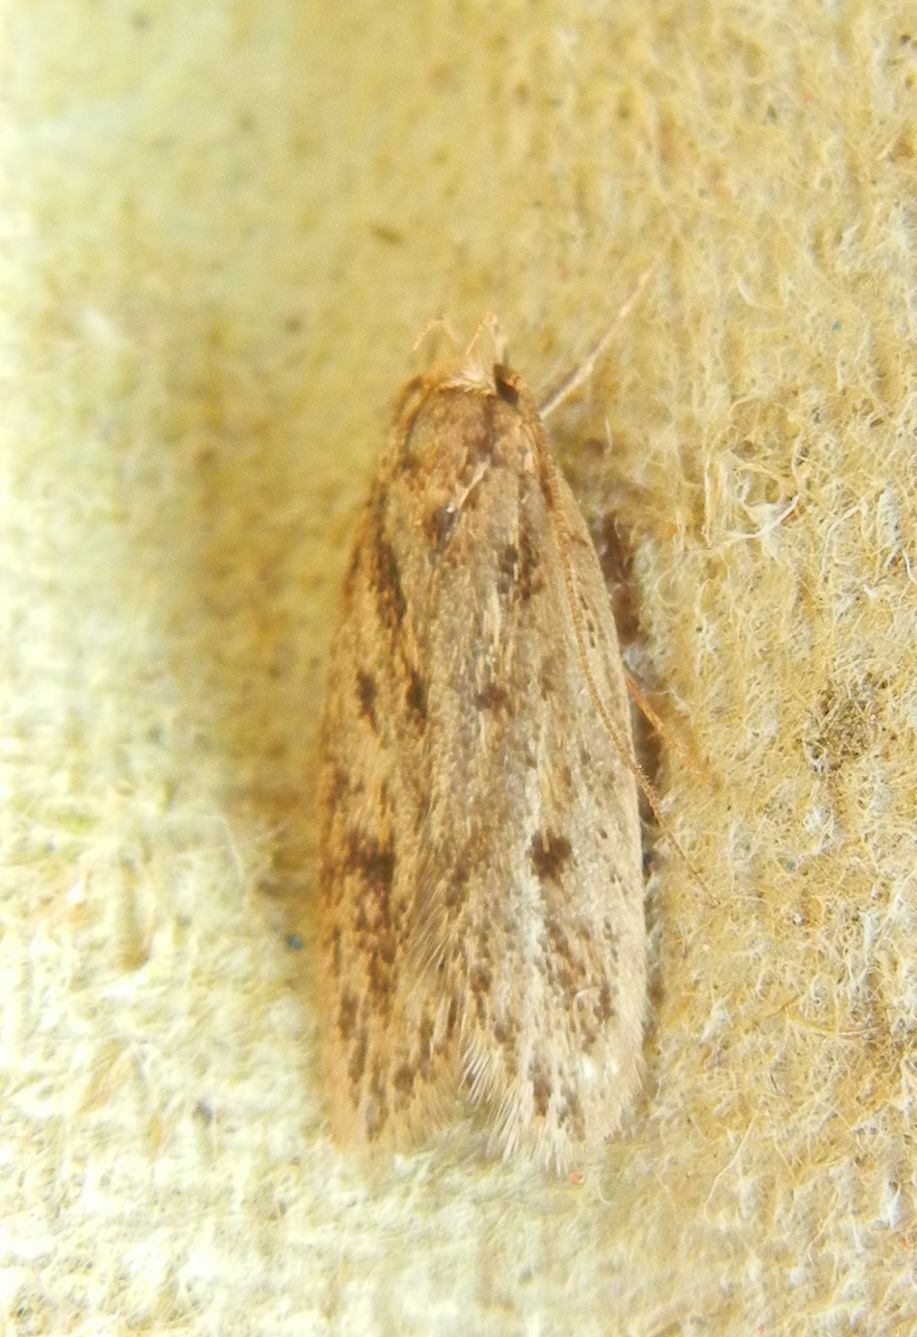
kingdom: Animalia
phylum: Arthropoda
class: Insecta
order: Lepidoptera
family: Oecophoridae
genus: Hofmannophila
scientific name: Hofmannophila pseudospretella
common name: Brown house moth
